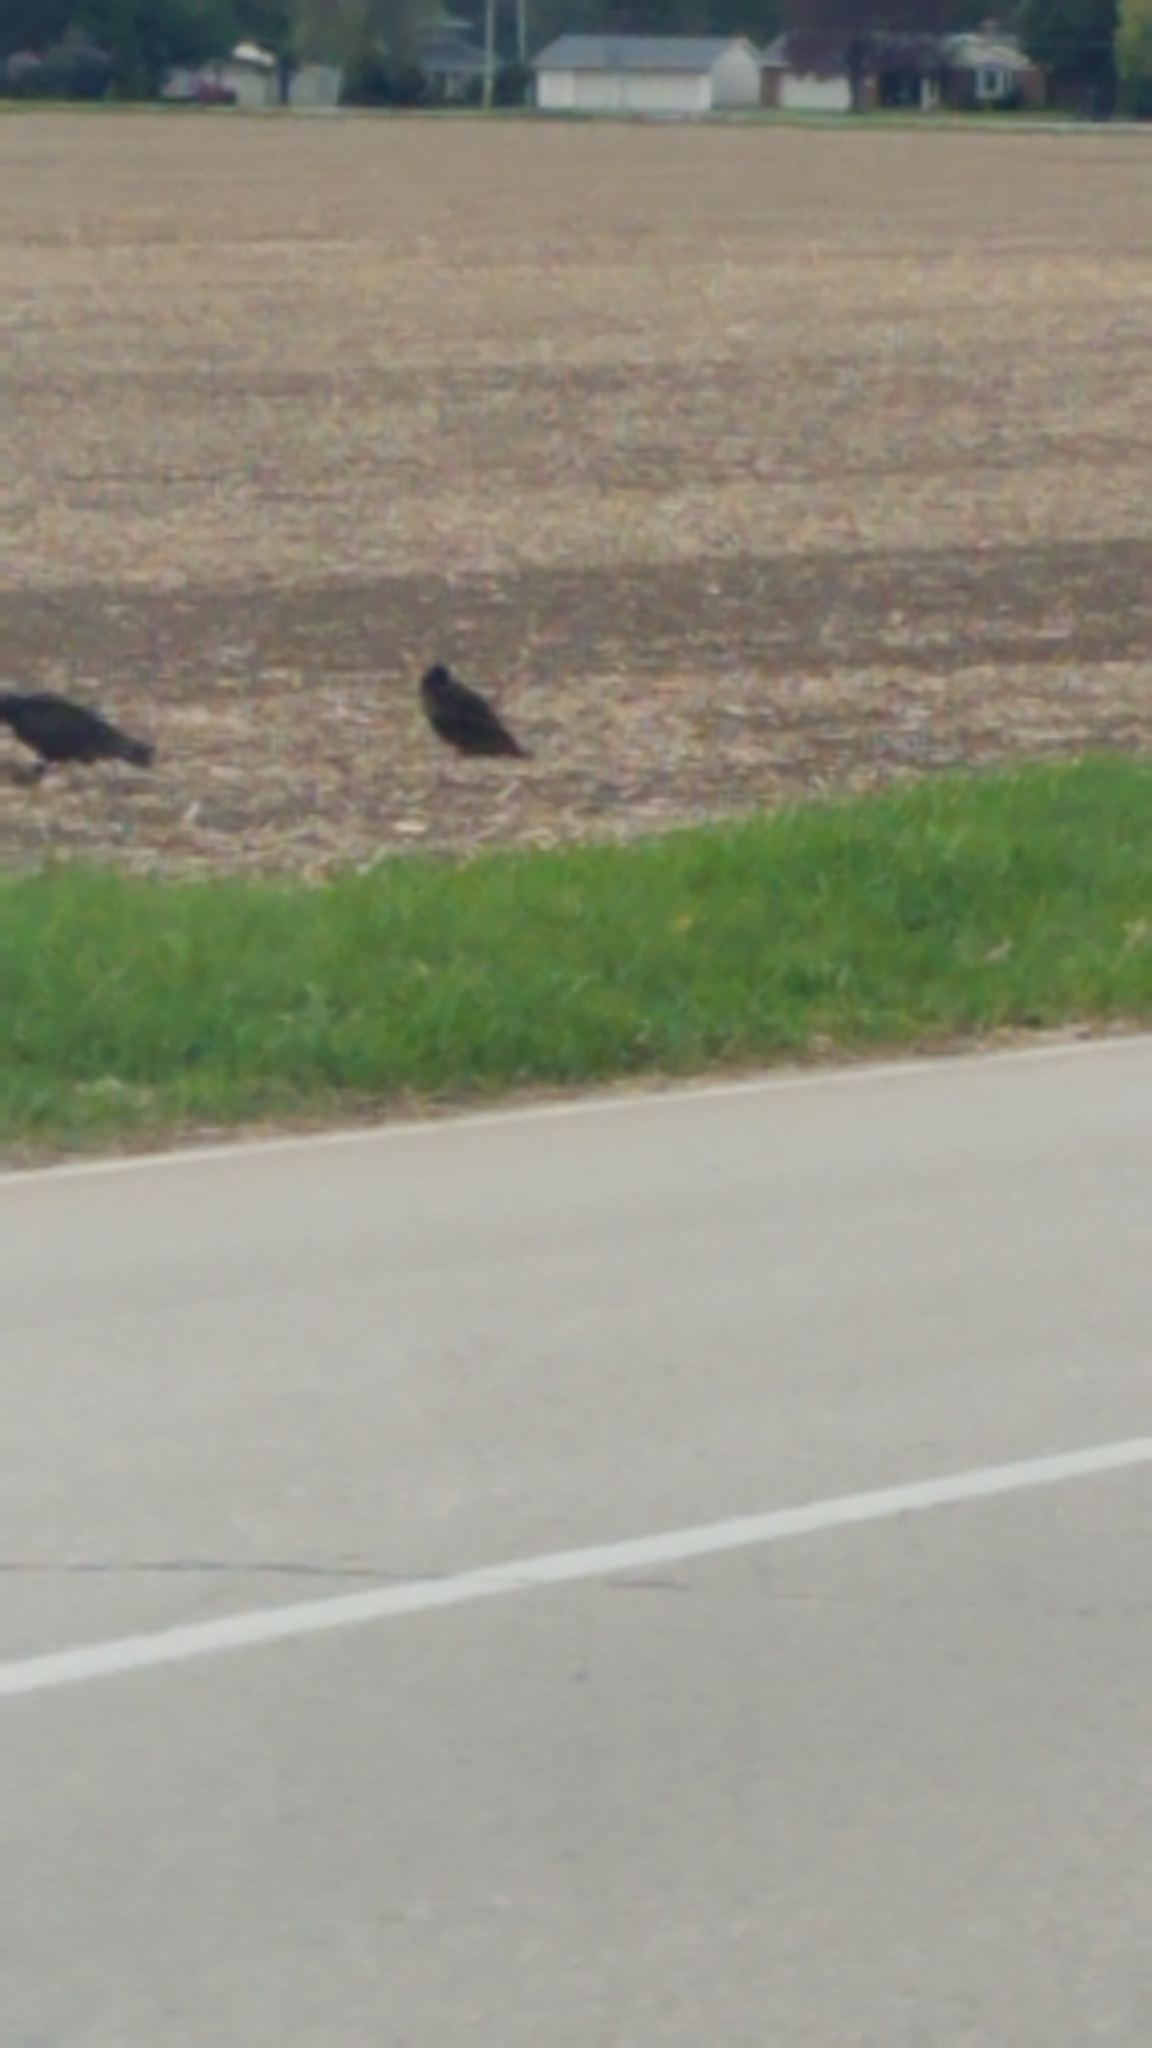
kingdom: Animalia
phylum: Chordata
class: Aves
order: Accipitriformes
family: Cathartidae
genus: Cathartes
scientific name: Cathartes aura
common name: Turkey vulture
